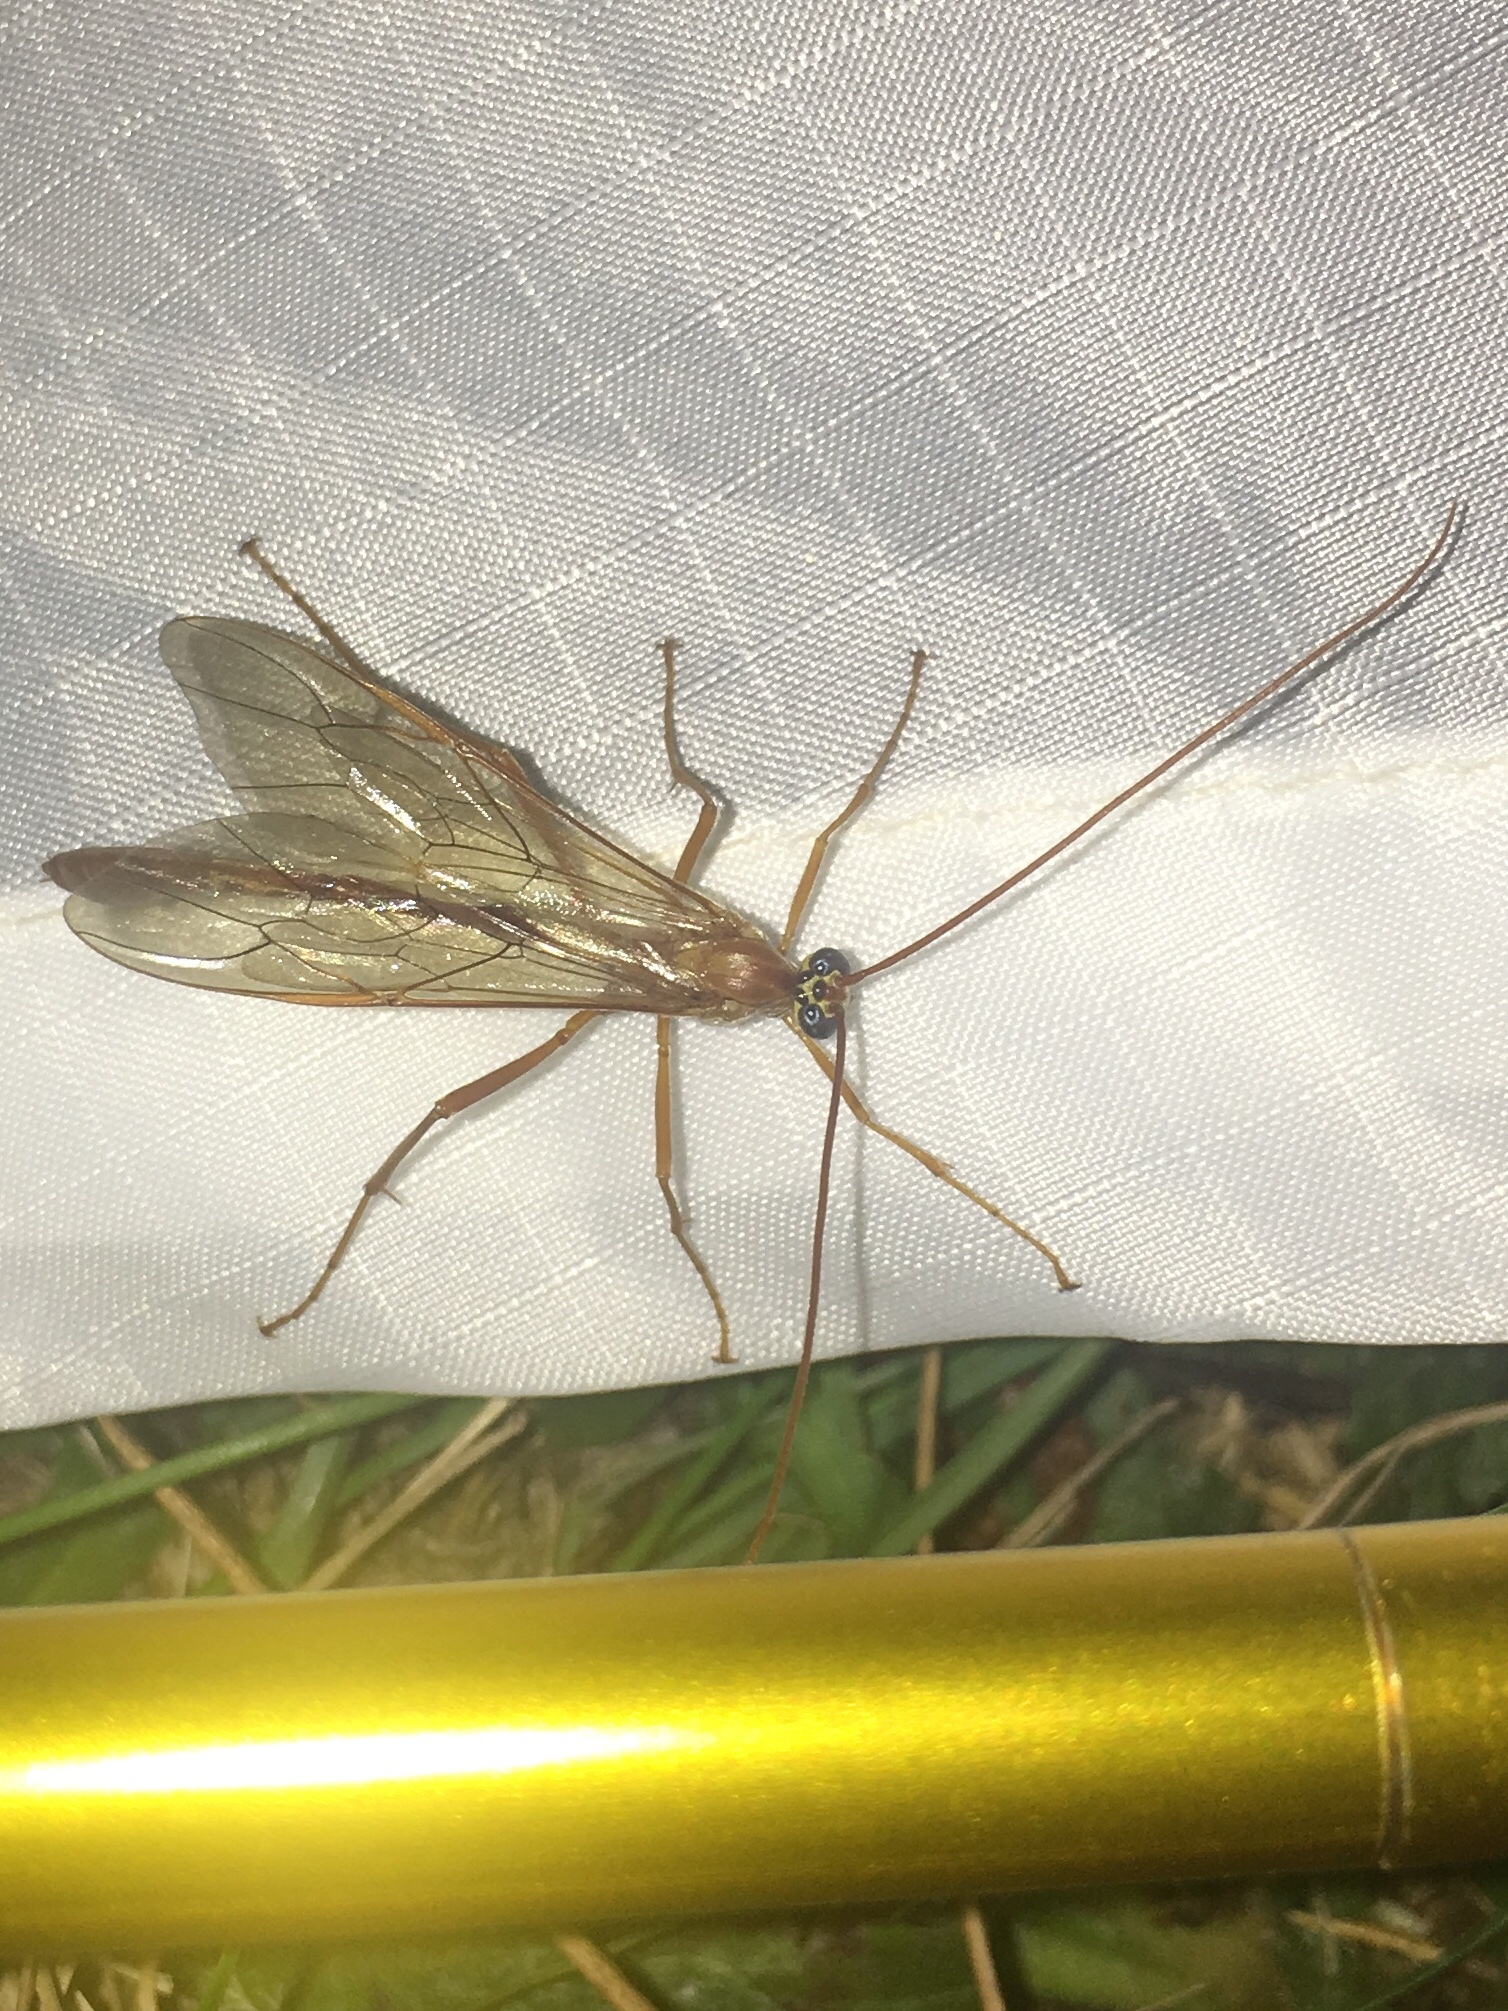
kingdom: Animalia
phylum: Arthropoda
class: Insecta
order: Hymenoptera
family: Ichneumonidae
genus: Enicospilus
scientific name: Enicospilus
